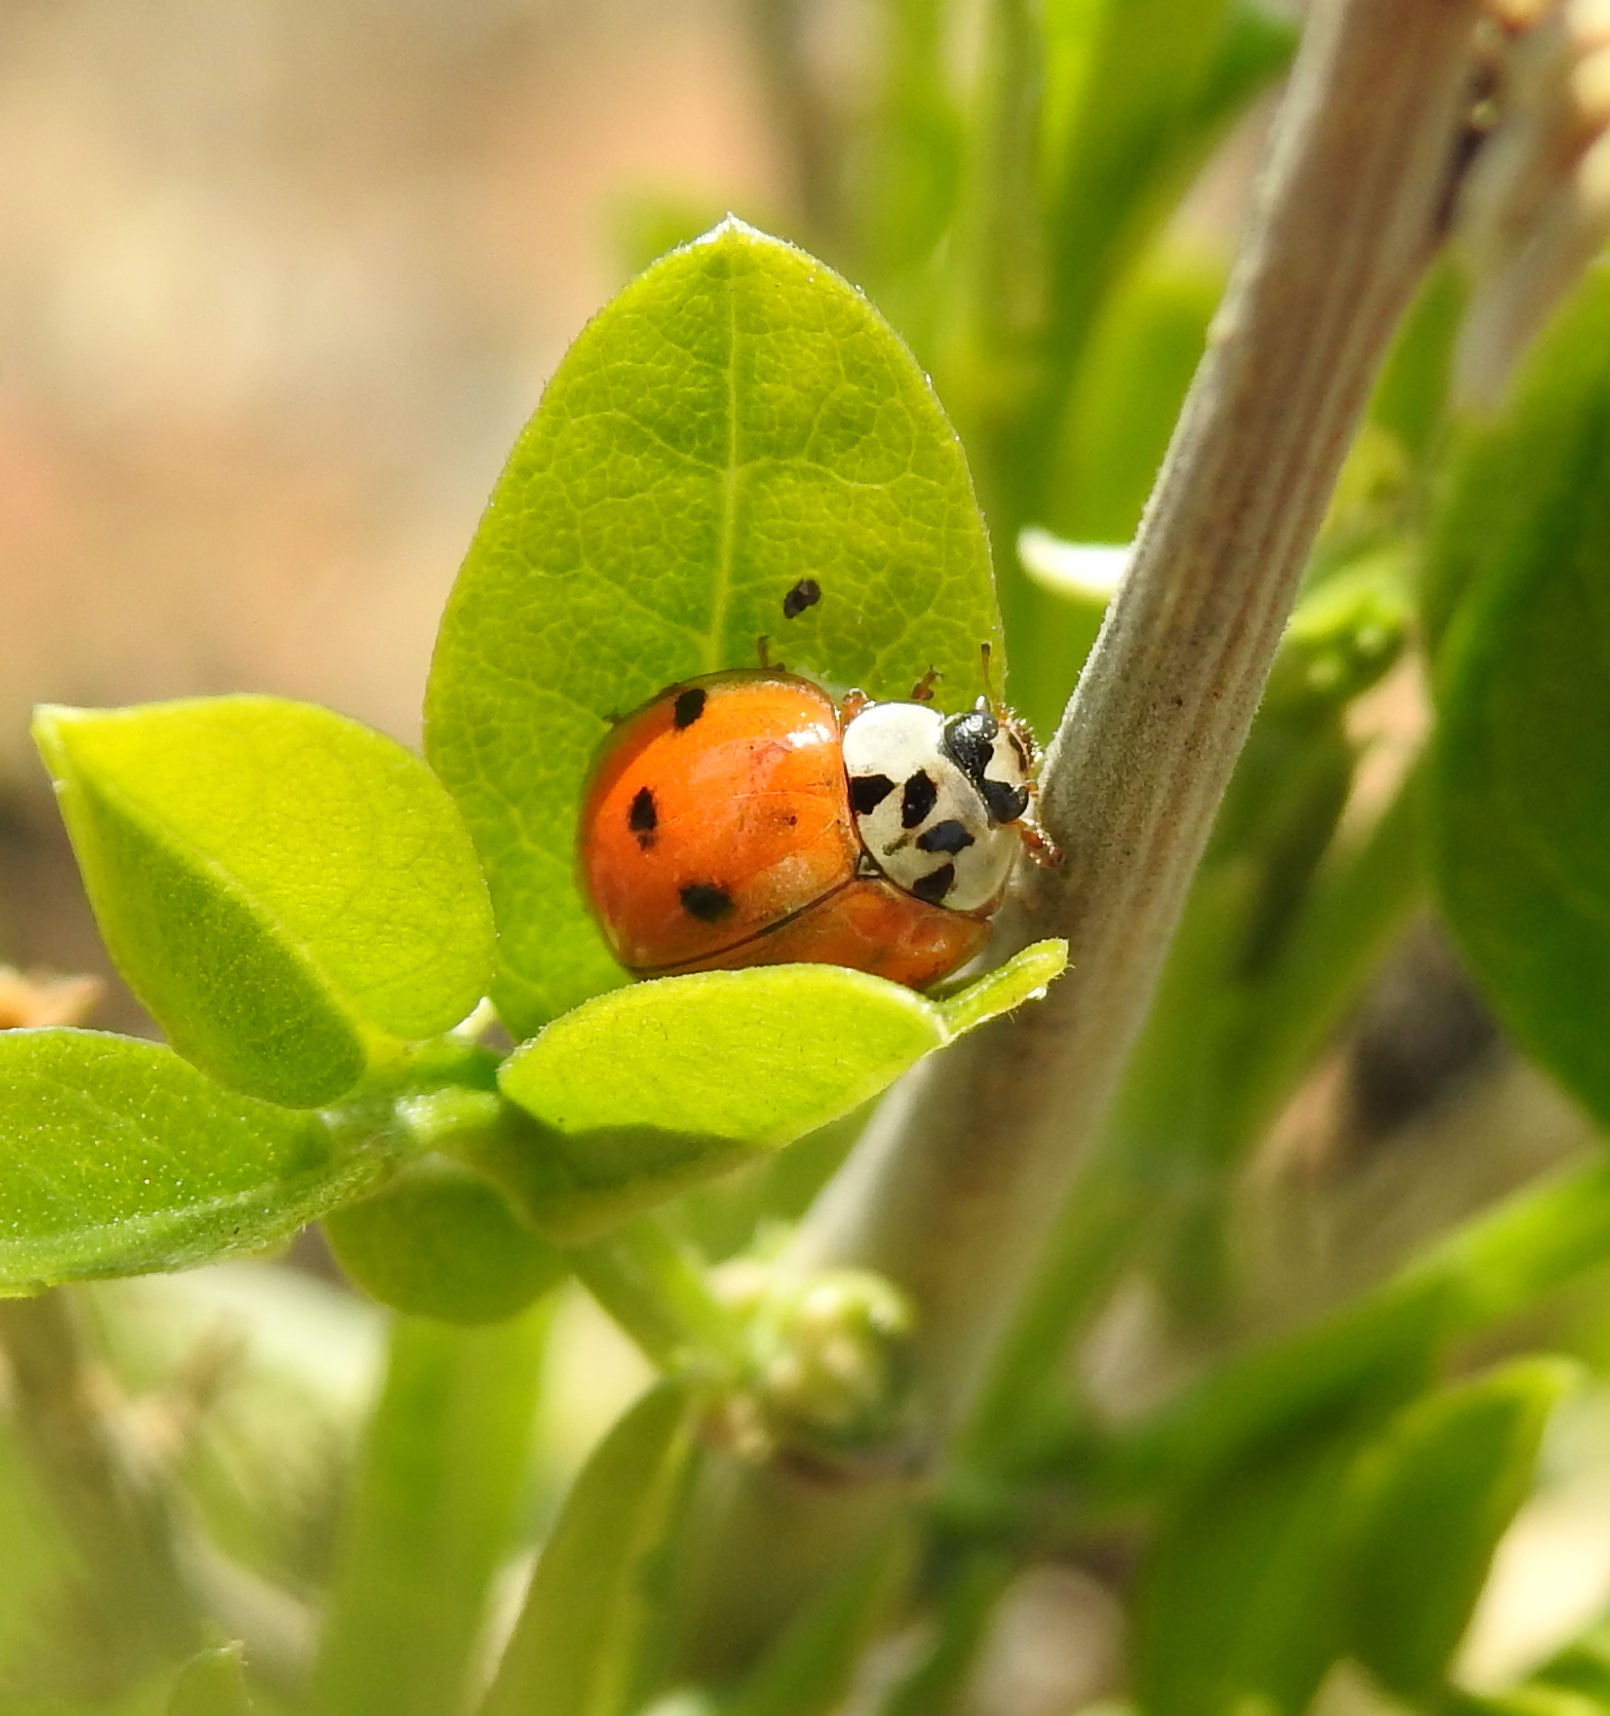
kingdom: Animalia
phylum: Arthropoda
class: Insecta
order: Coleoptera
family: Coccinellidae
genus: Harmonia
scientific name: Harmonia axyridis
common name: Harlequin ladybird
